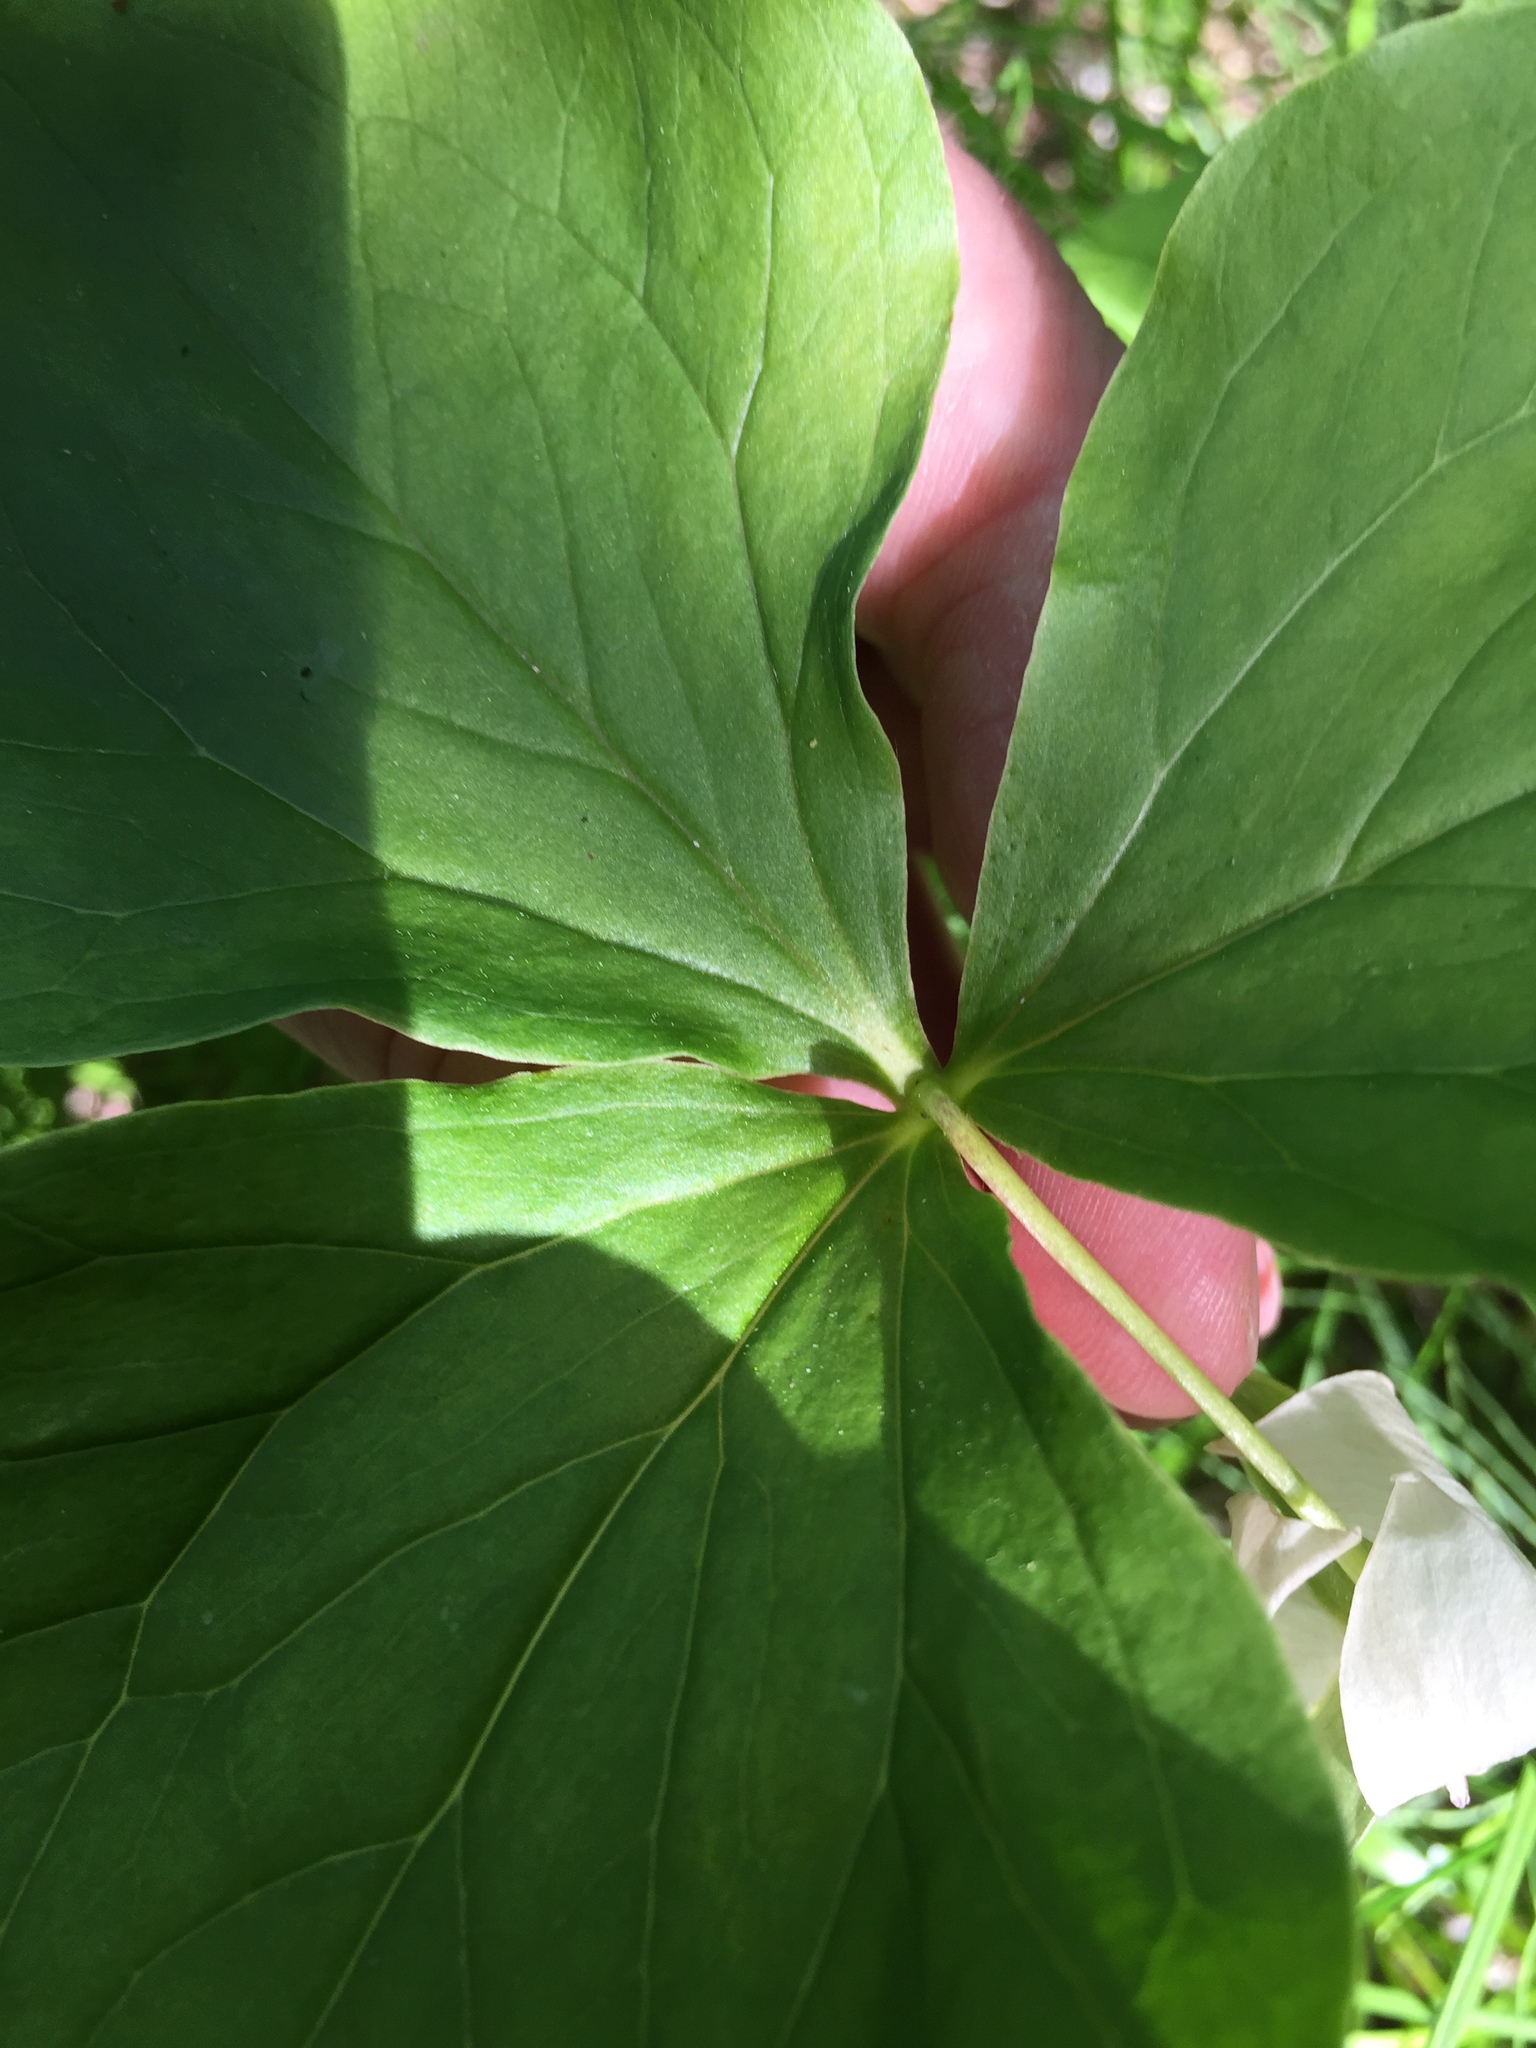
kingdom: Plantae
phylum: Tracheophyta
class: Liliopsida
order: Liliales
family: Melanthiaceae
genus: Trillium
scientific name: Trillium cernuum
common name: Nodding trillium
